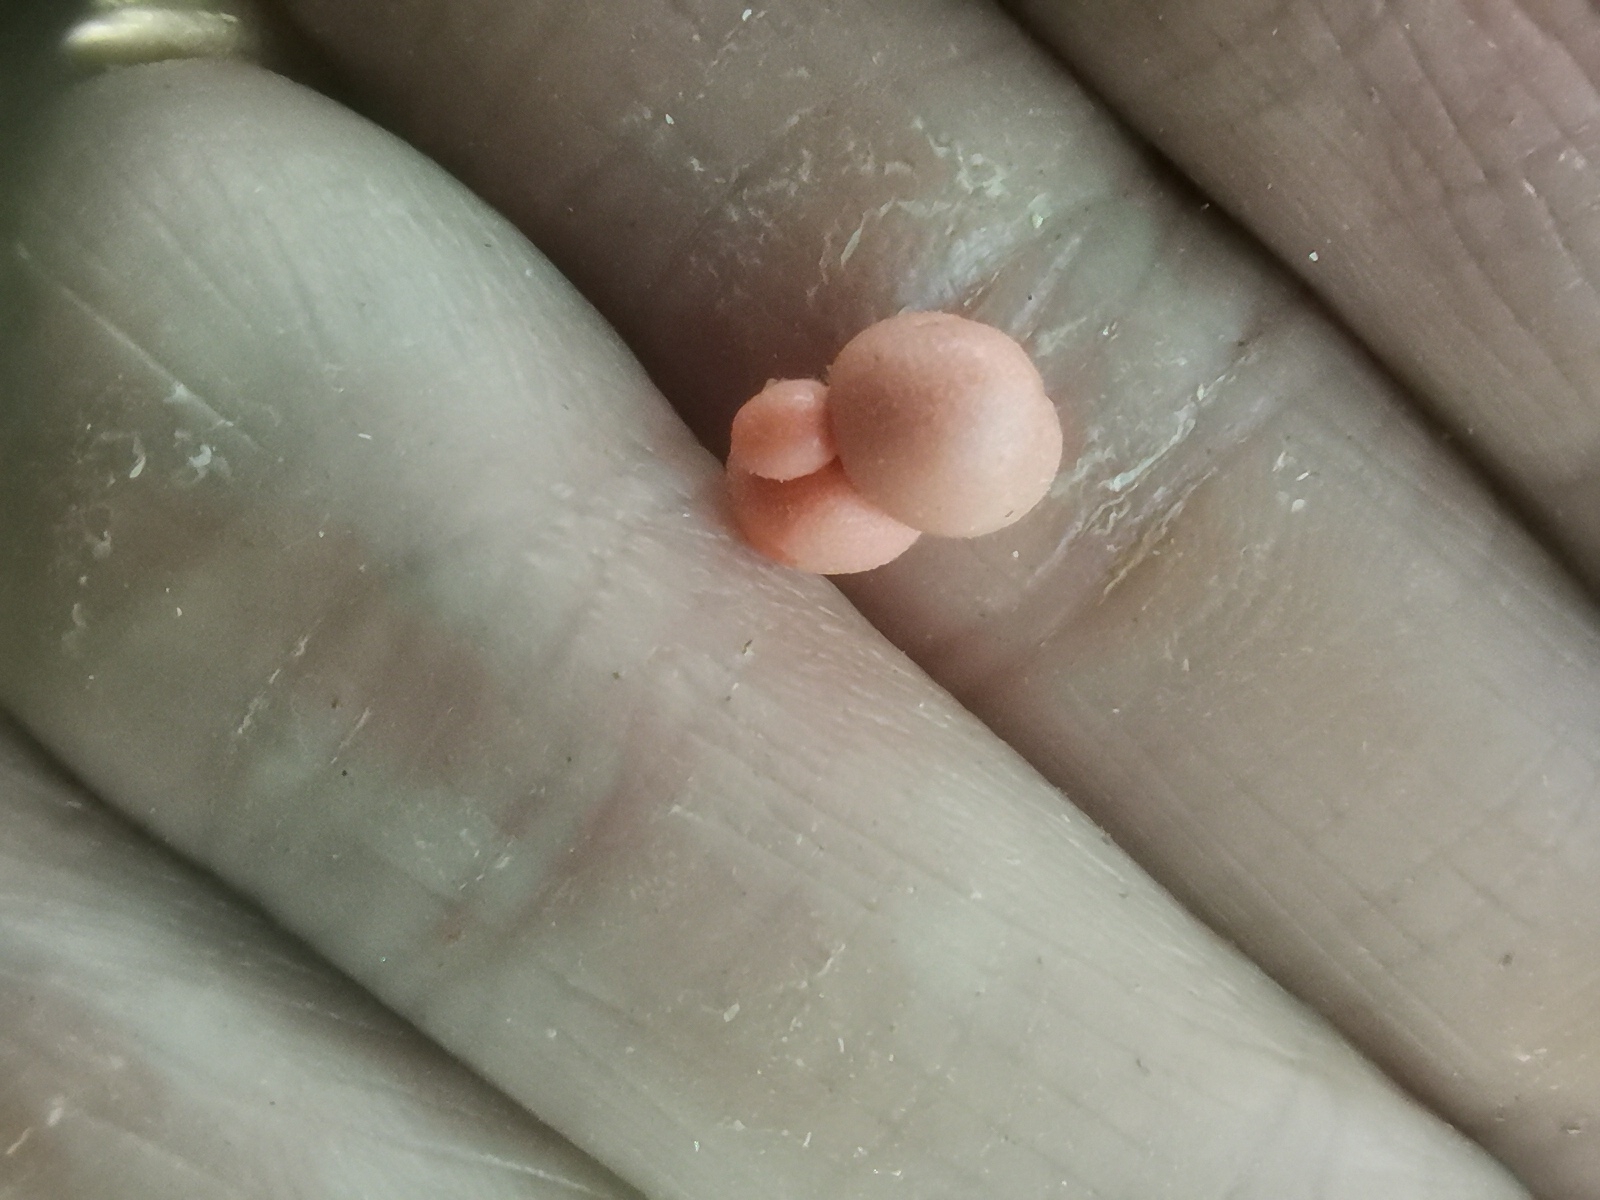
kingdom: Protozoa
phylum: Mycetozoa
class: Myxomycetes
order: Cribrariales
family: Tubiferaceae
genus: Lycogala
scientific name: Lycogala epidendrum
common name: Wolf's milk
